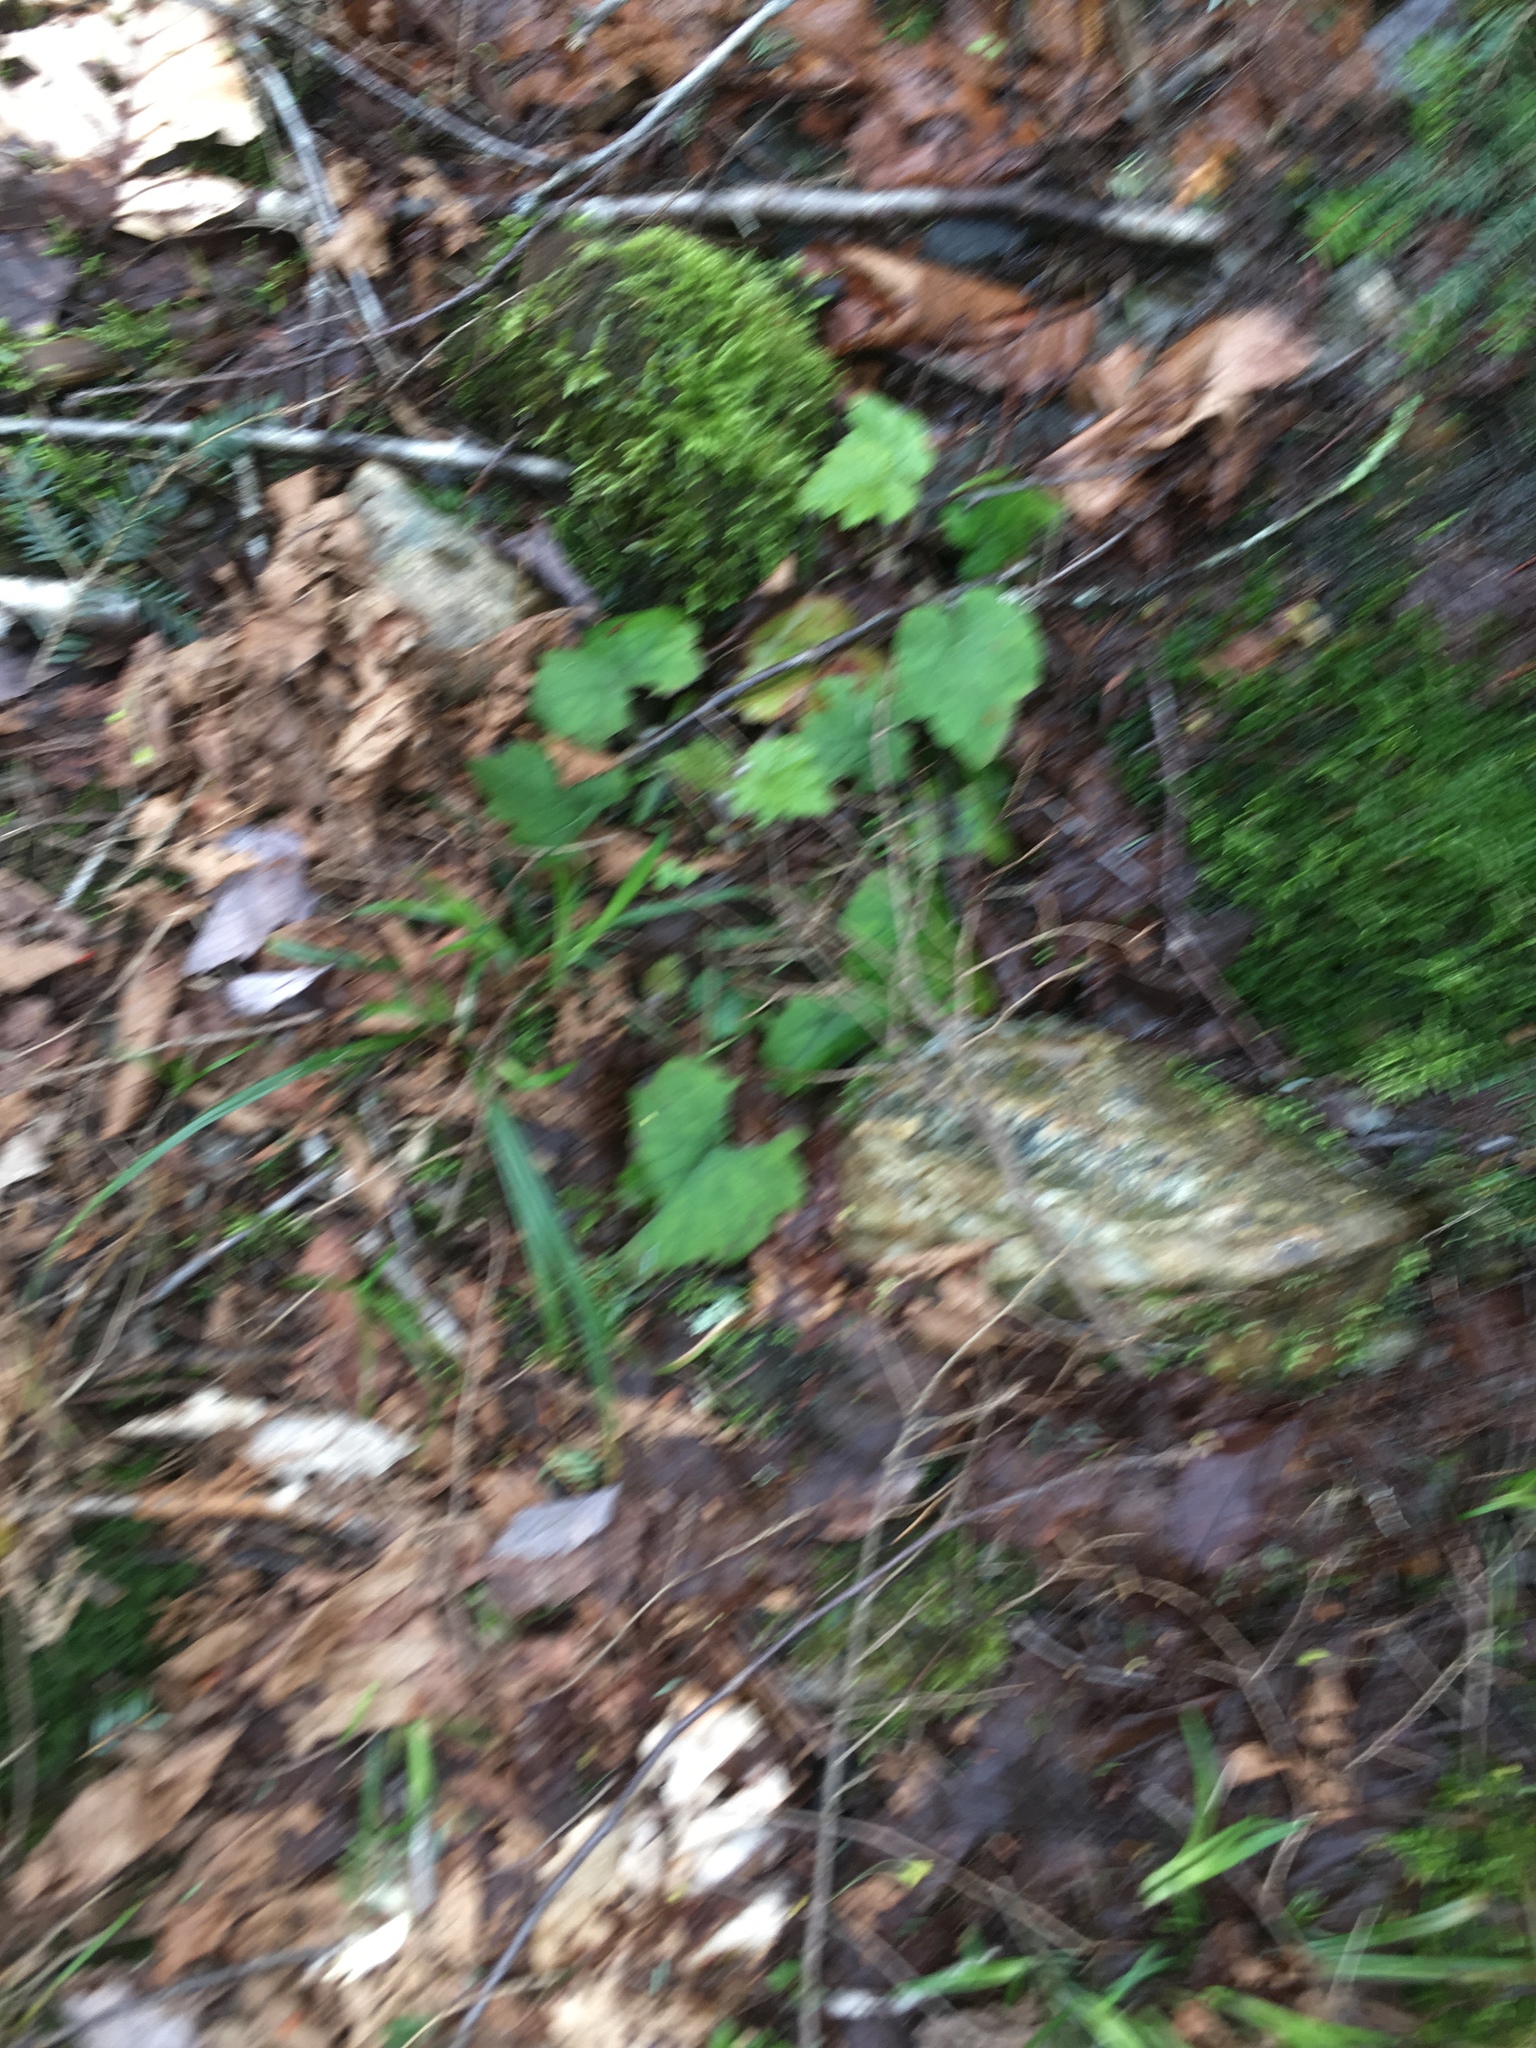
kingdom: Plantae
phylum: Tracheophyta
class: Magnoliopsida
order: Saxifragales
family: Saxifragaceae
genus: Tiarella
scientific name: Tiarella stolonifera
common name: Stoloniferous foamflower
